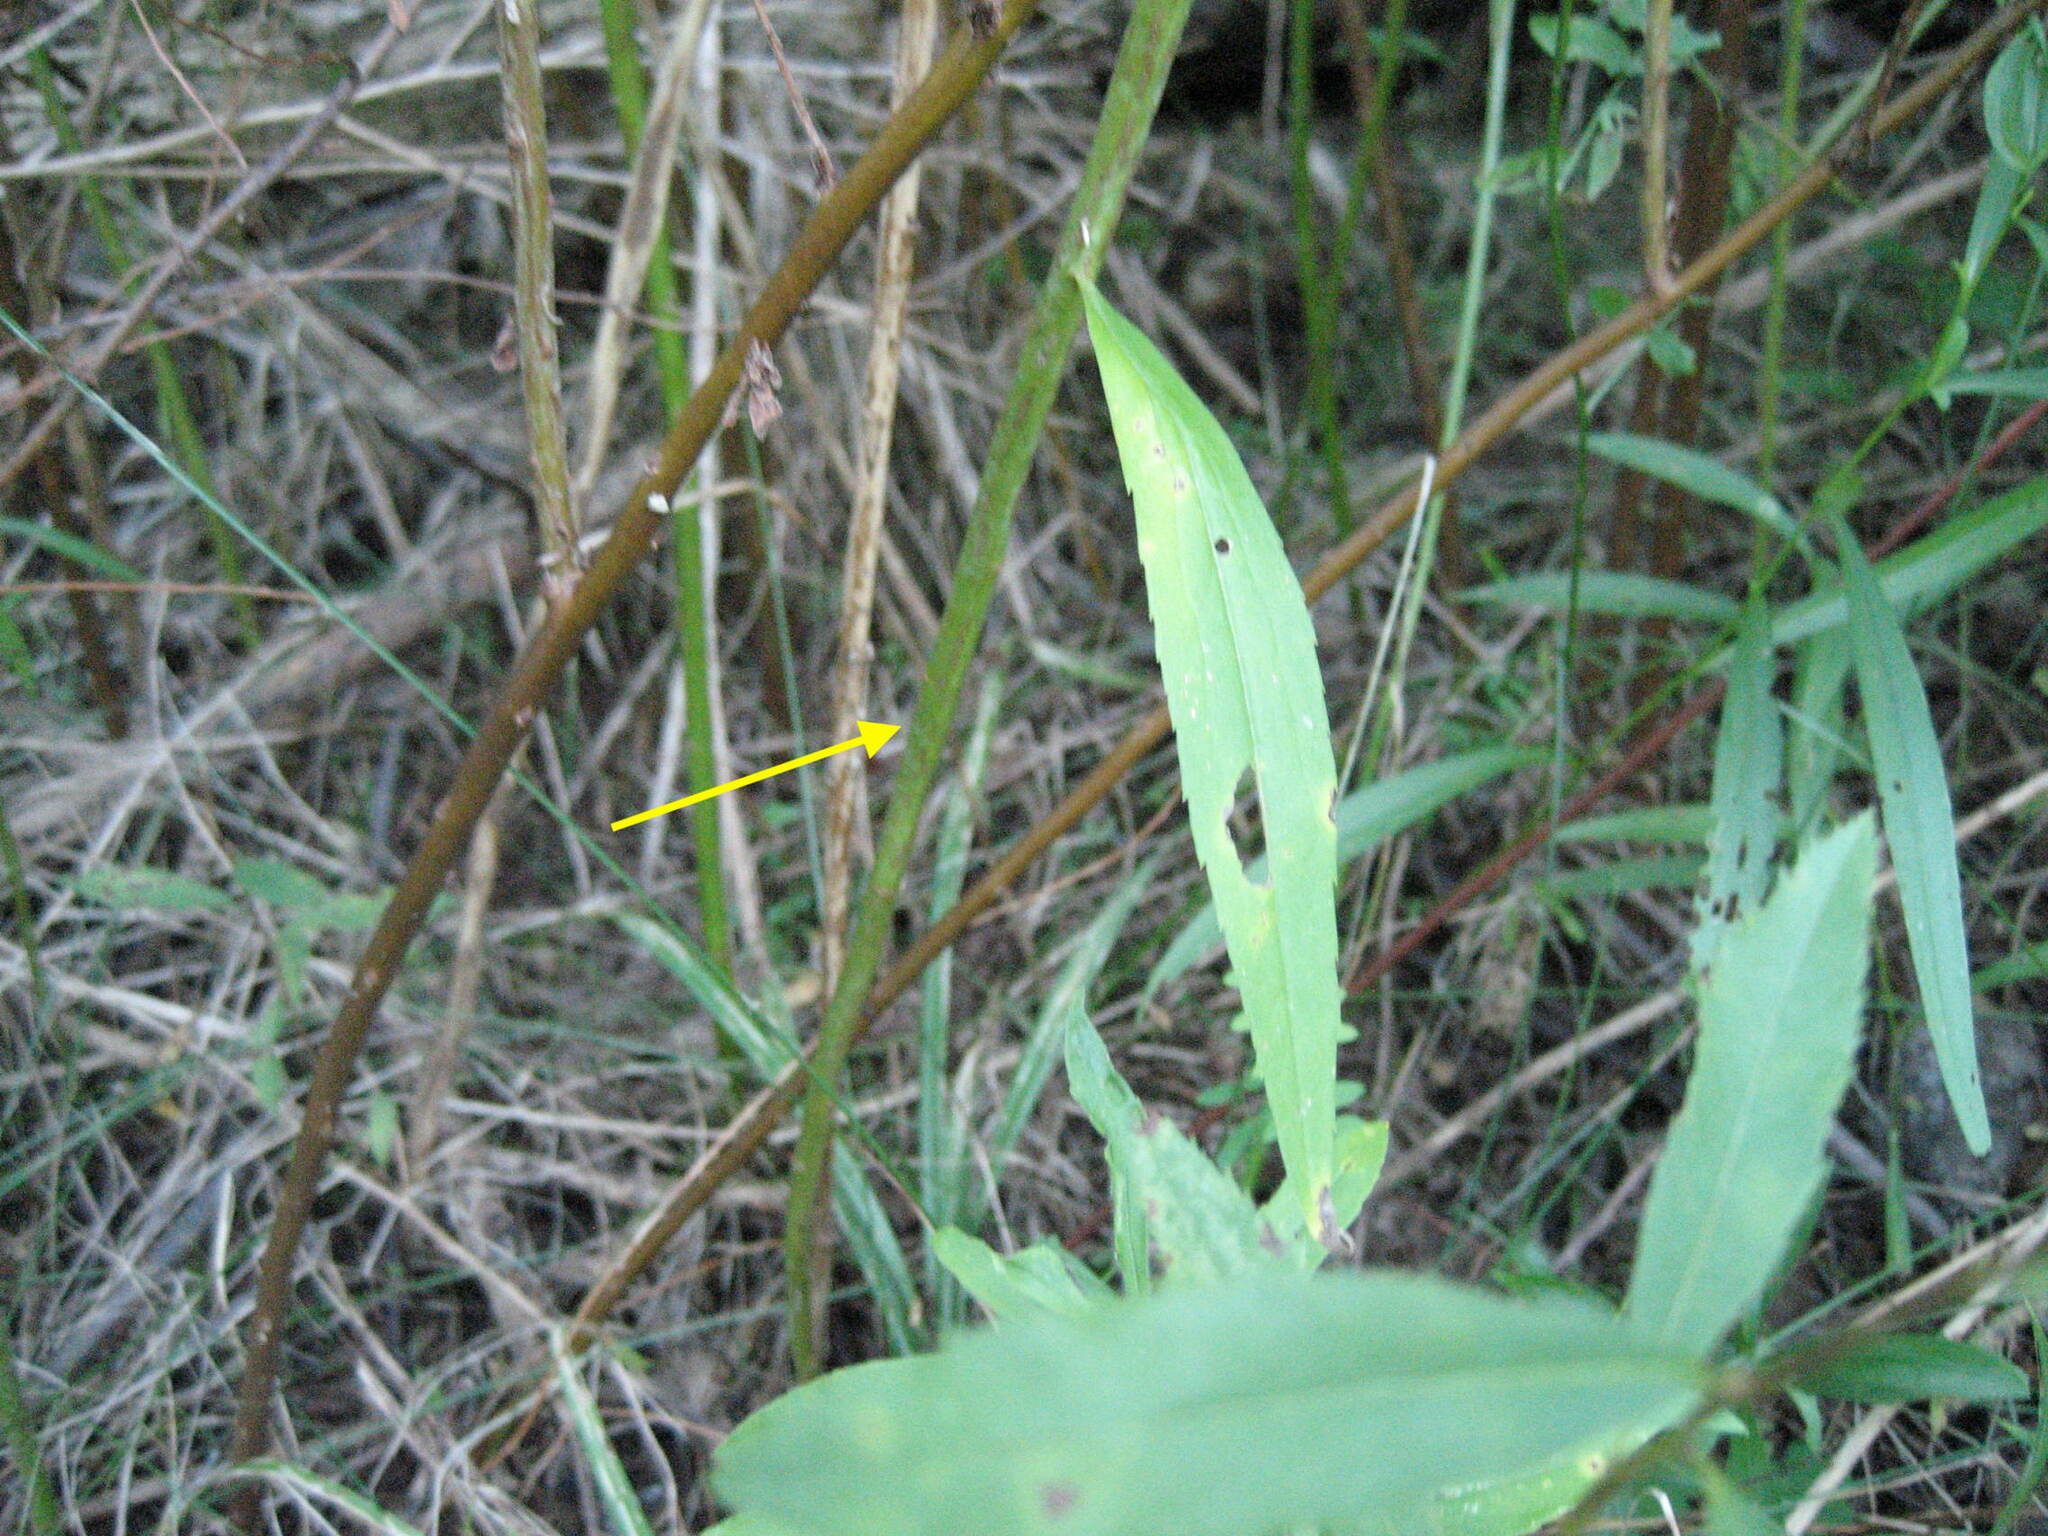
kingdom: Plantae
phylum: Tracheophyta
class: Magnoliopsida
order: Asterales
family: Asteraceae
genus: Solidago
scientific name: Solidago gigantea
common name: Giant goldenrod
